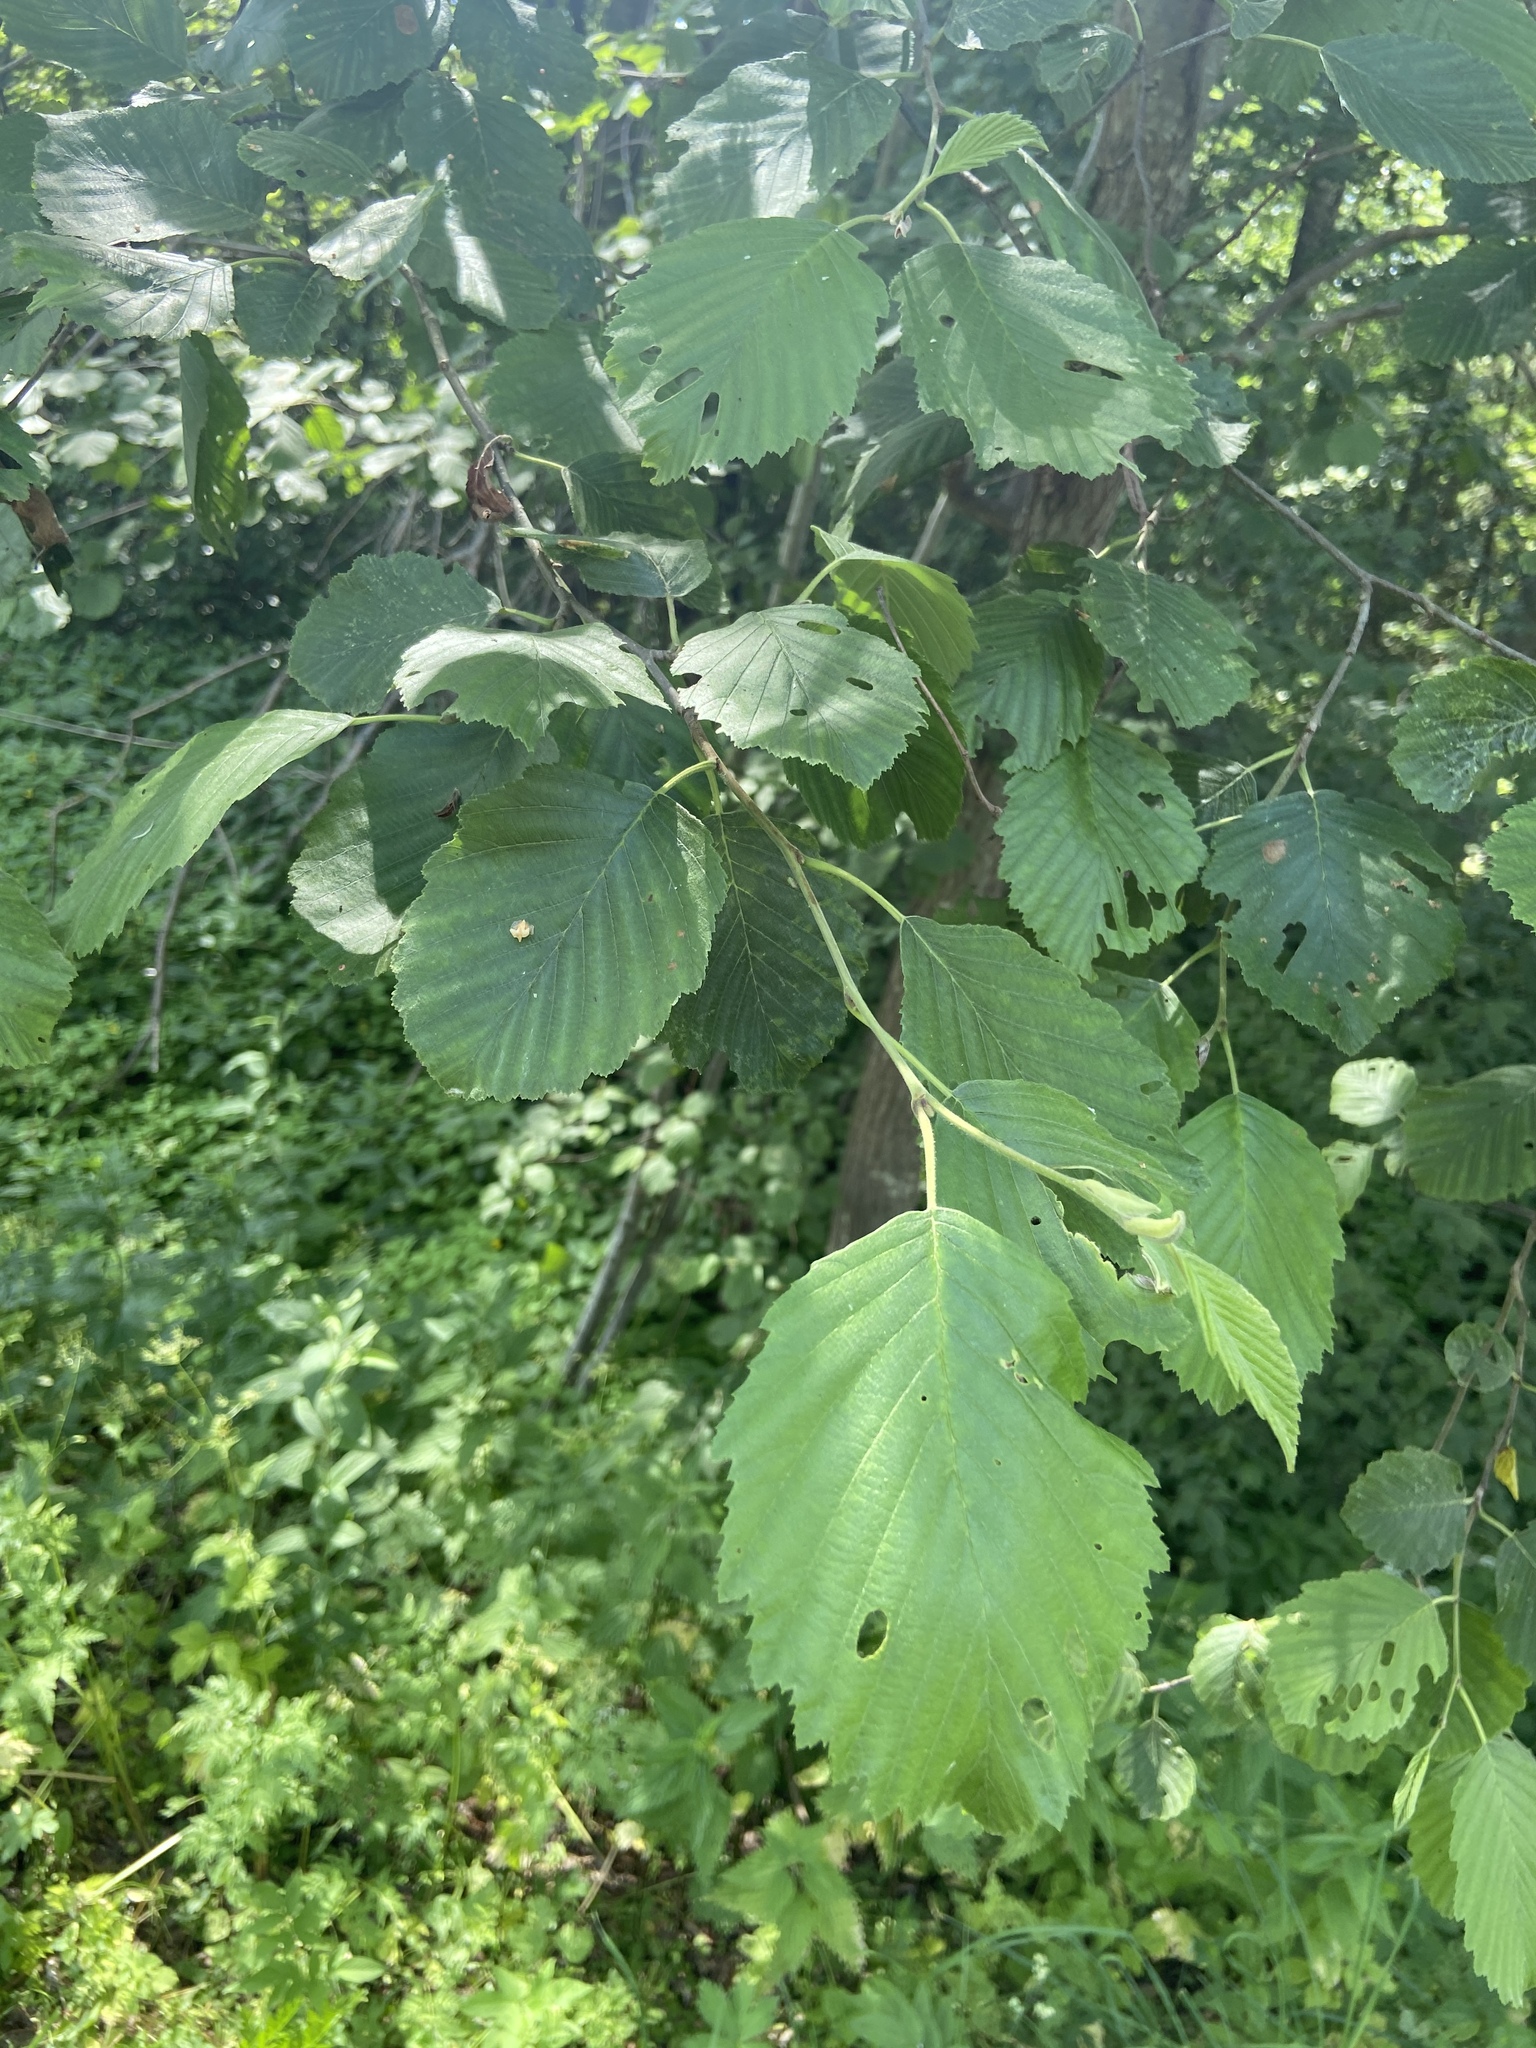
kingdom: Plantae
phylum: Tracheophyta
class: Magnoliopsida
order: Fagales
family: Betulaceae
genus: Alnus
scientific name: Alnus incana
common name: Grey alder
